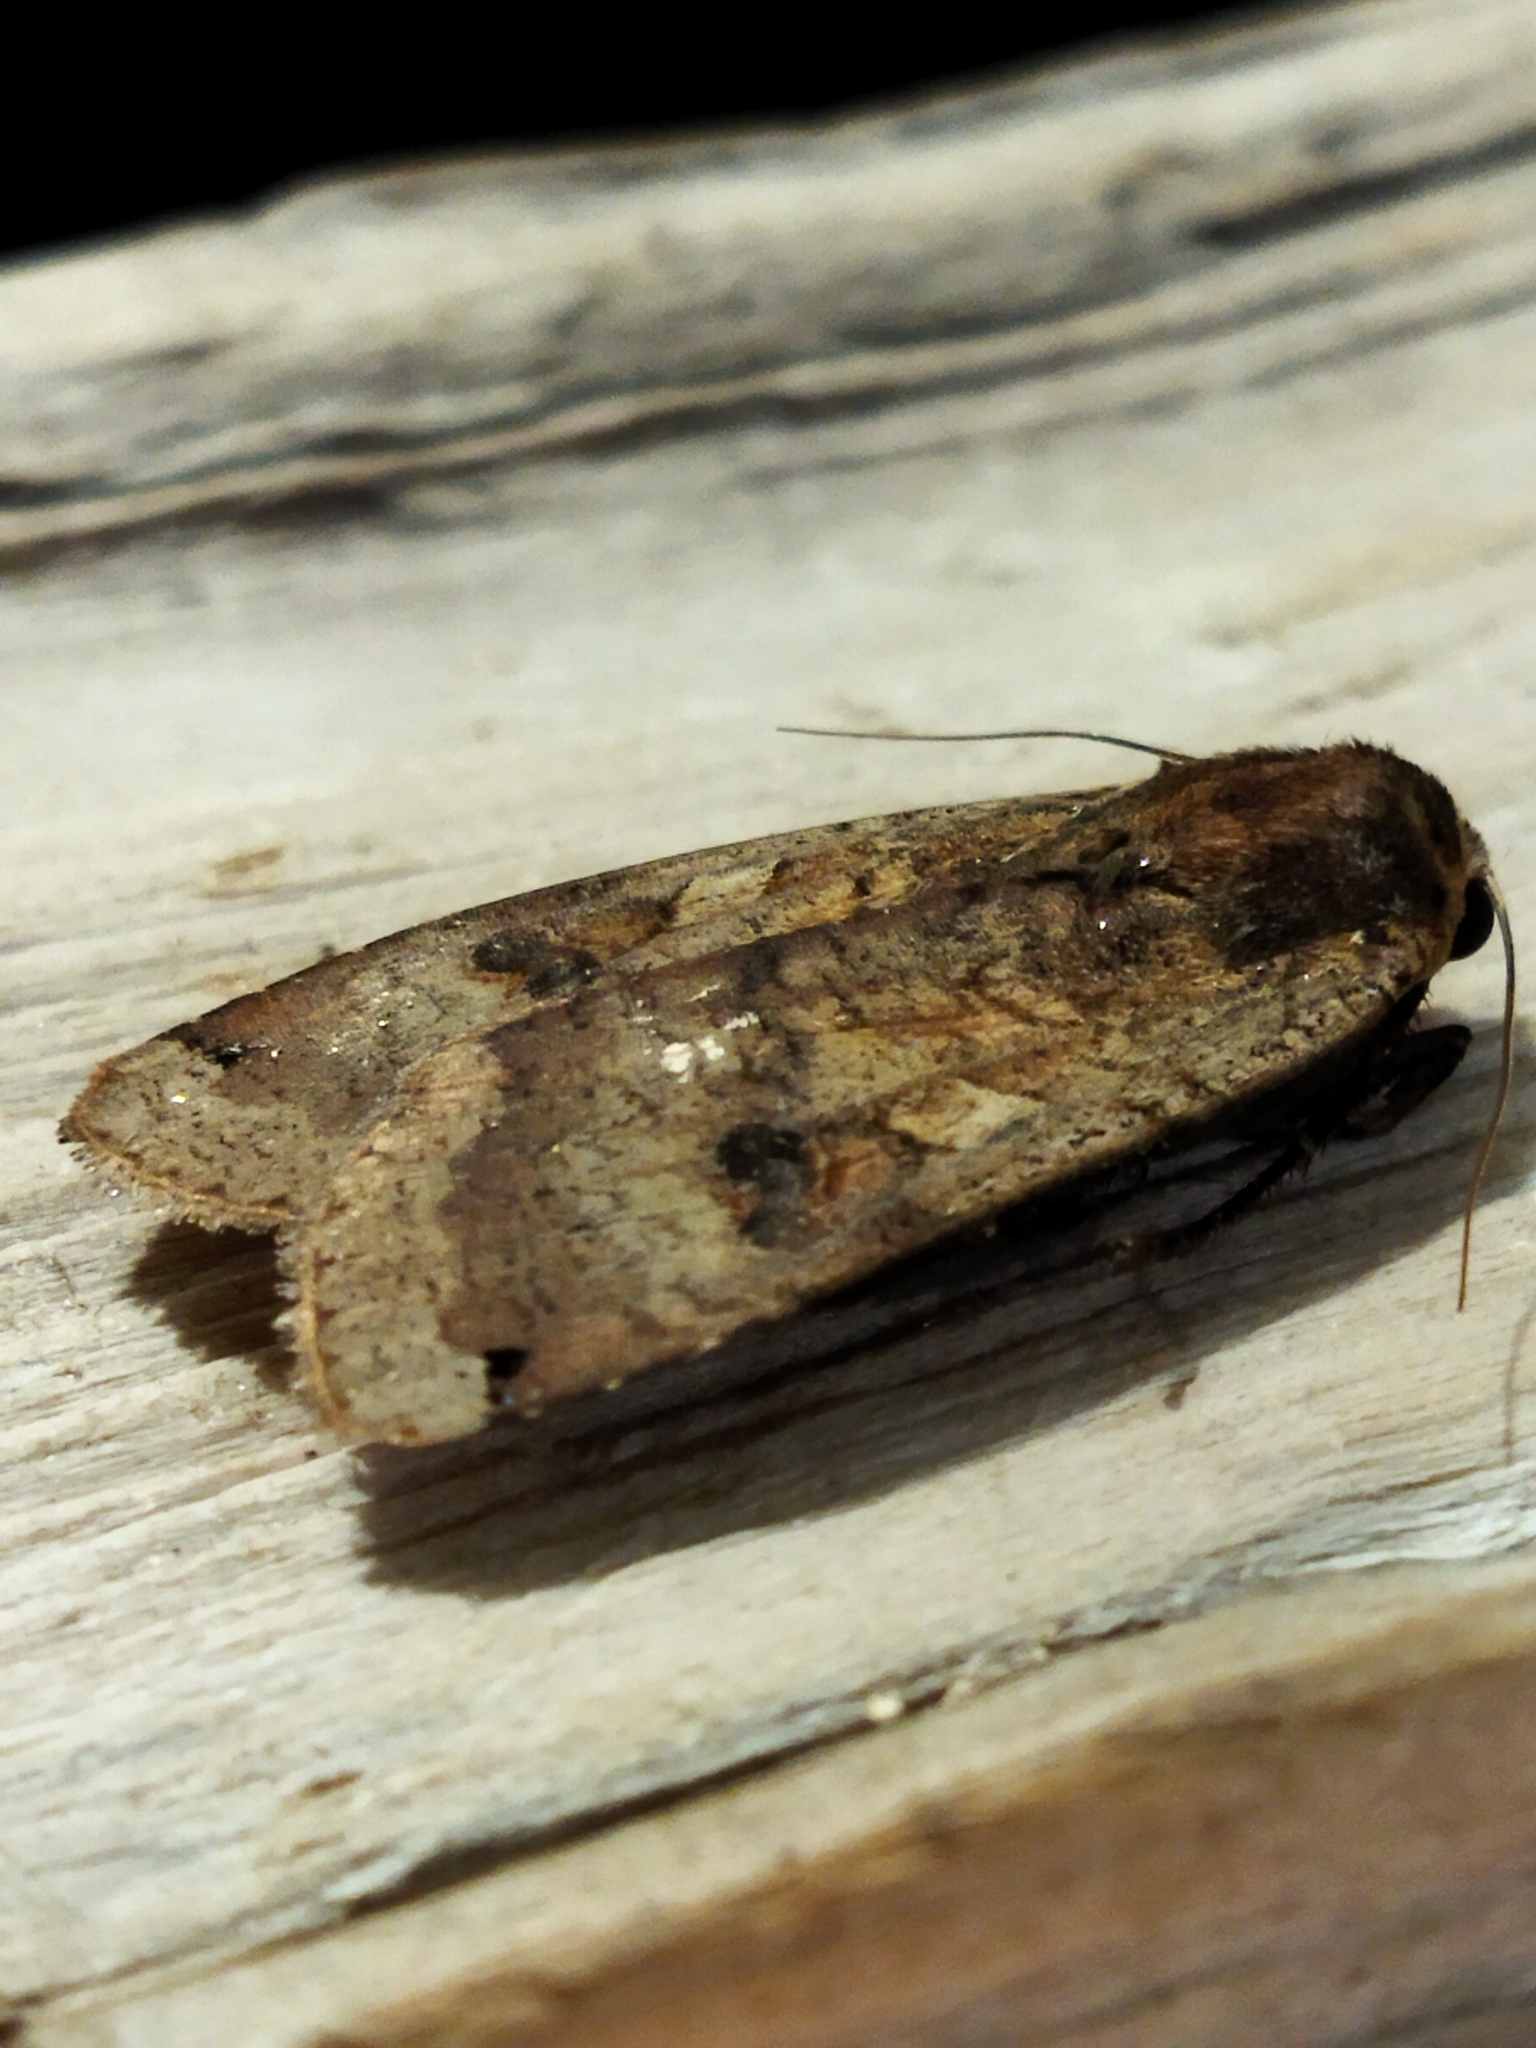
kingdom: Animalia
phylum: Arthropoda
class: Insecta
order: Lepidoptera
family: Noctuidae
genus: Noctua
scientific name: Noctua pronuba
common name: Large yellow underwing
